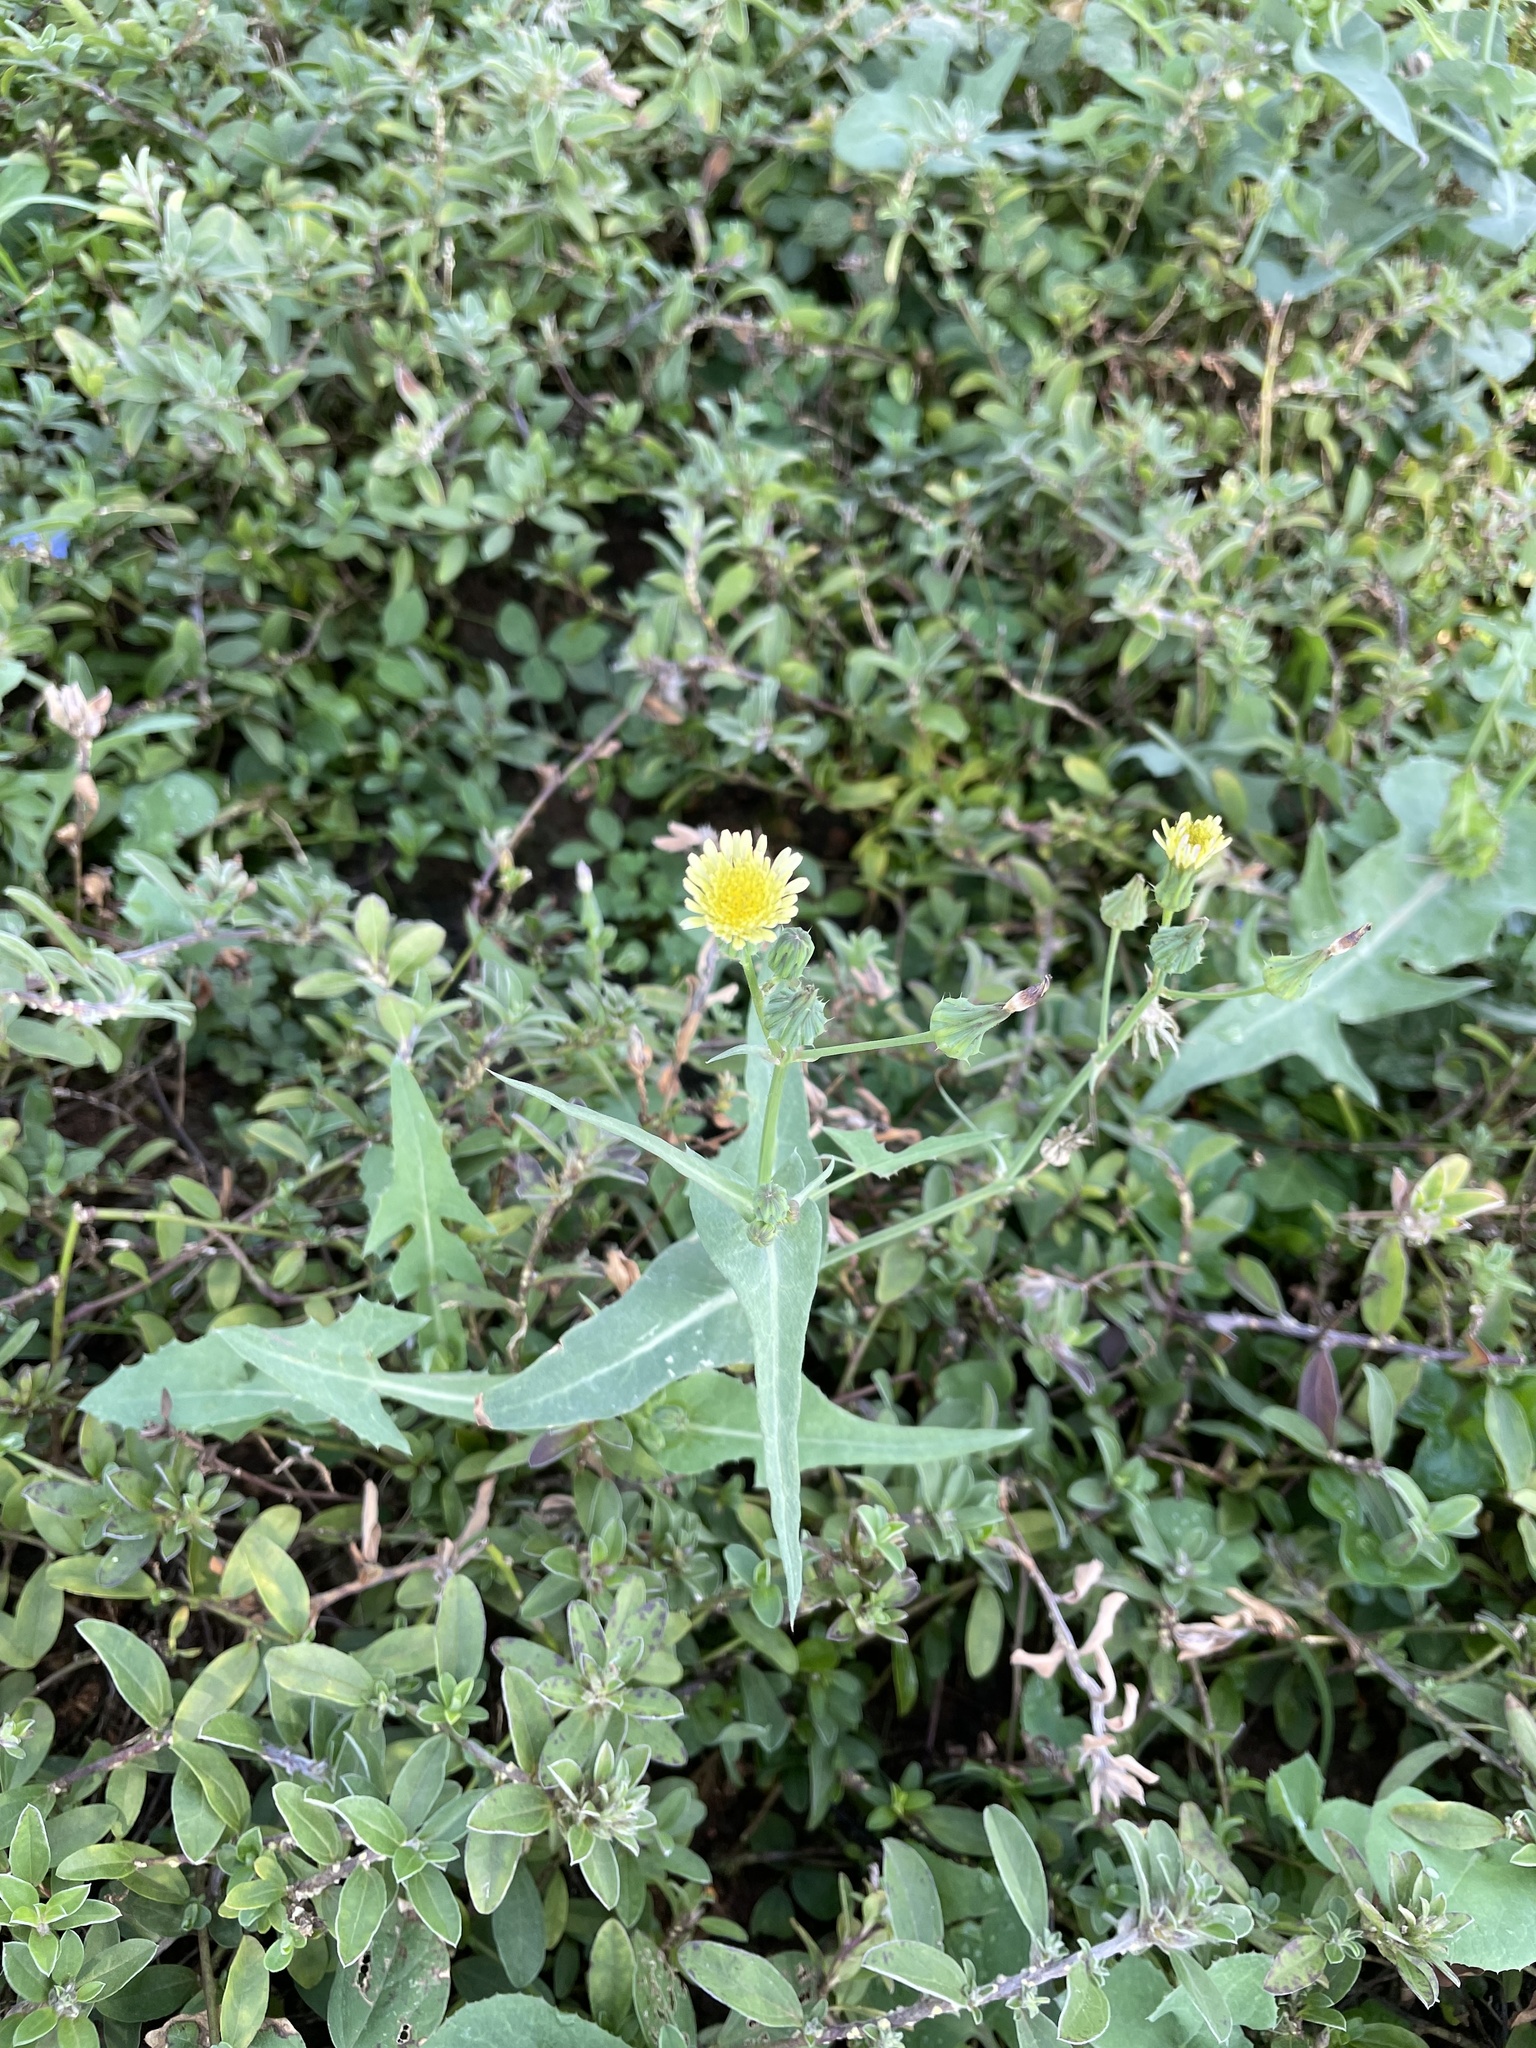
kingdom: Plantae
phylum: Tracheophyta
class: Magnoliopsida
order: Asterales
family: Asteraceae
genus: Sonchus
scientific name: Sonchus oleraceus
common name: Common sowthistle
